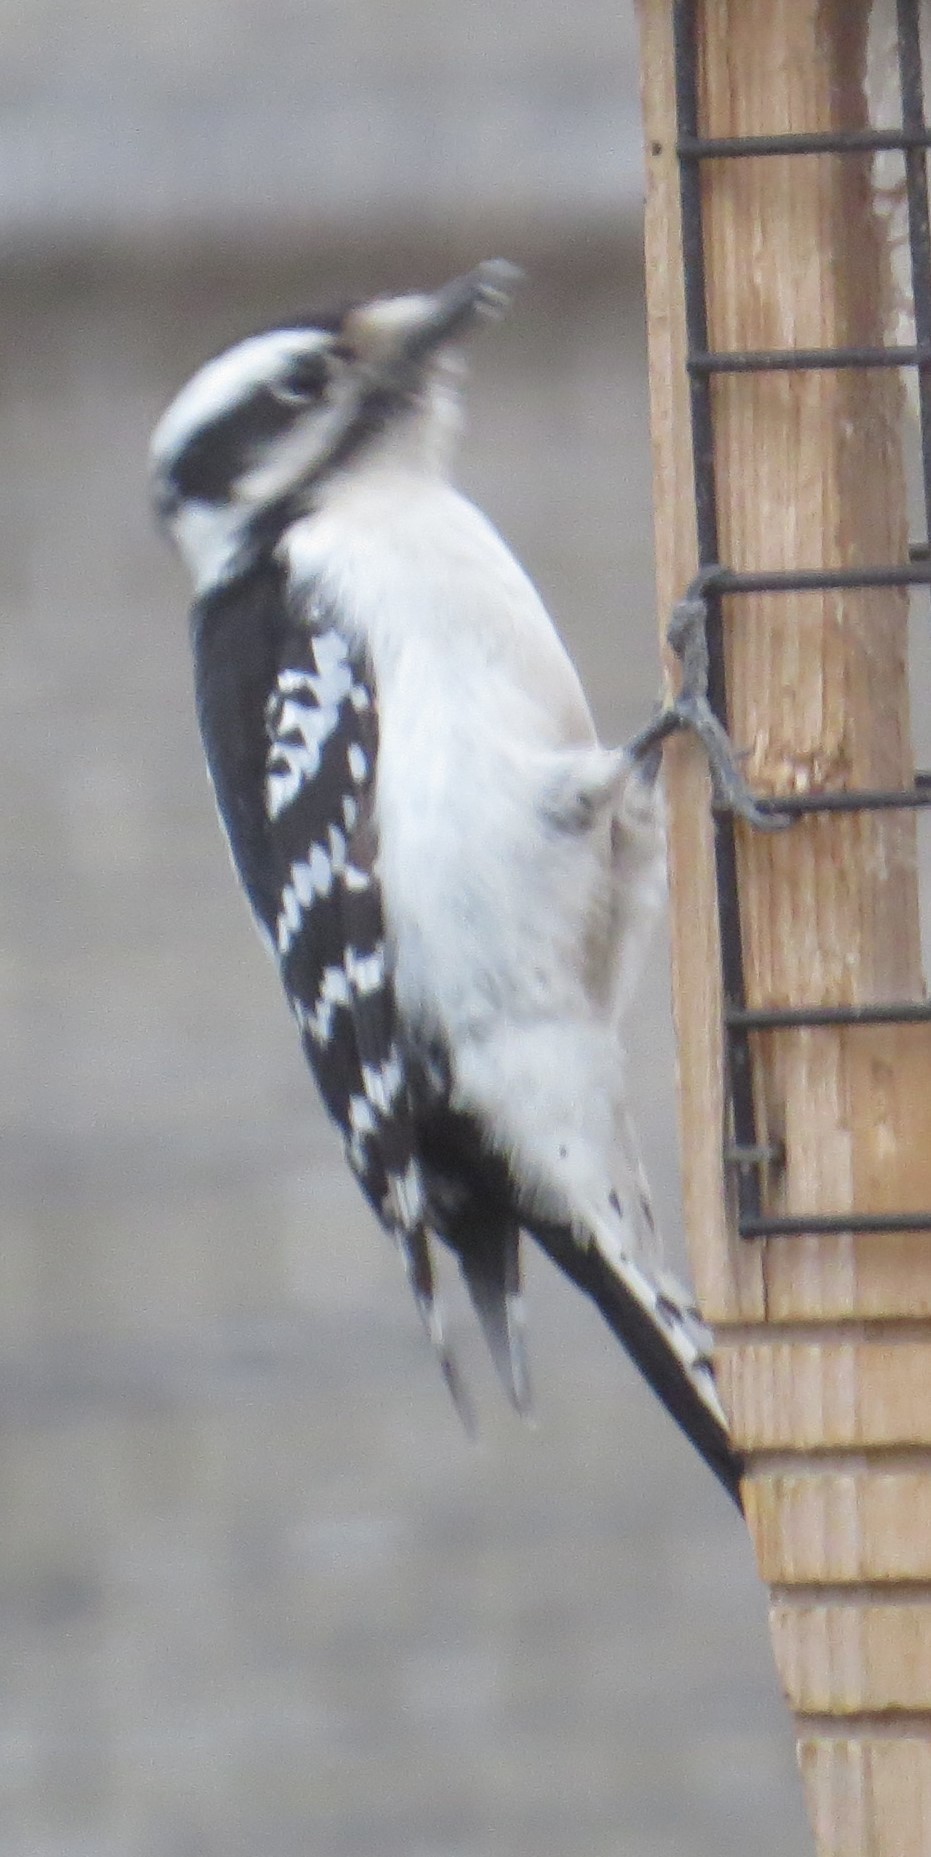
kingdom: Animalia
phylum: Chordata
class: Aves
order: Piciformes
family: Picidae
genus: Dryobates
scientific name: Dryobates pubescens
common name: Downy woodpecker
